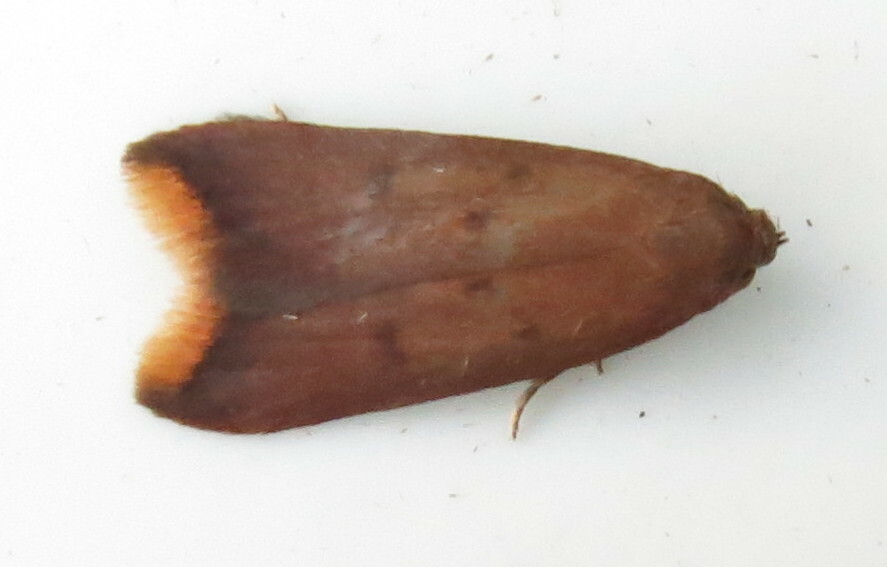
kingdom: Animalia
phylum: Arthropoda
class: Insecta
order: Lepidoptera
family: Oecophoridae
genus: Tachystola
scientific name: Tachystola acroxantha
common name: Ruddy streak
